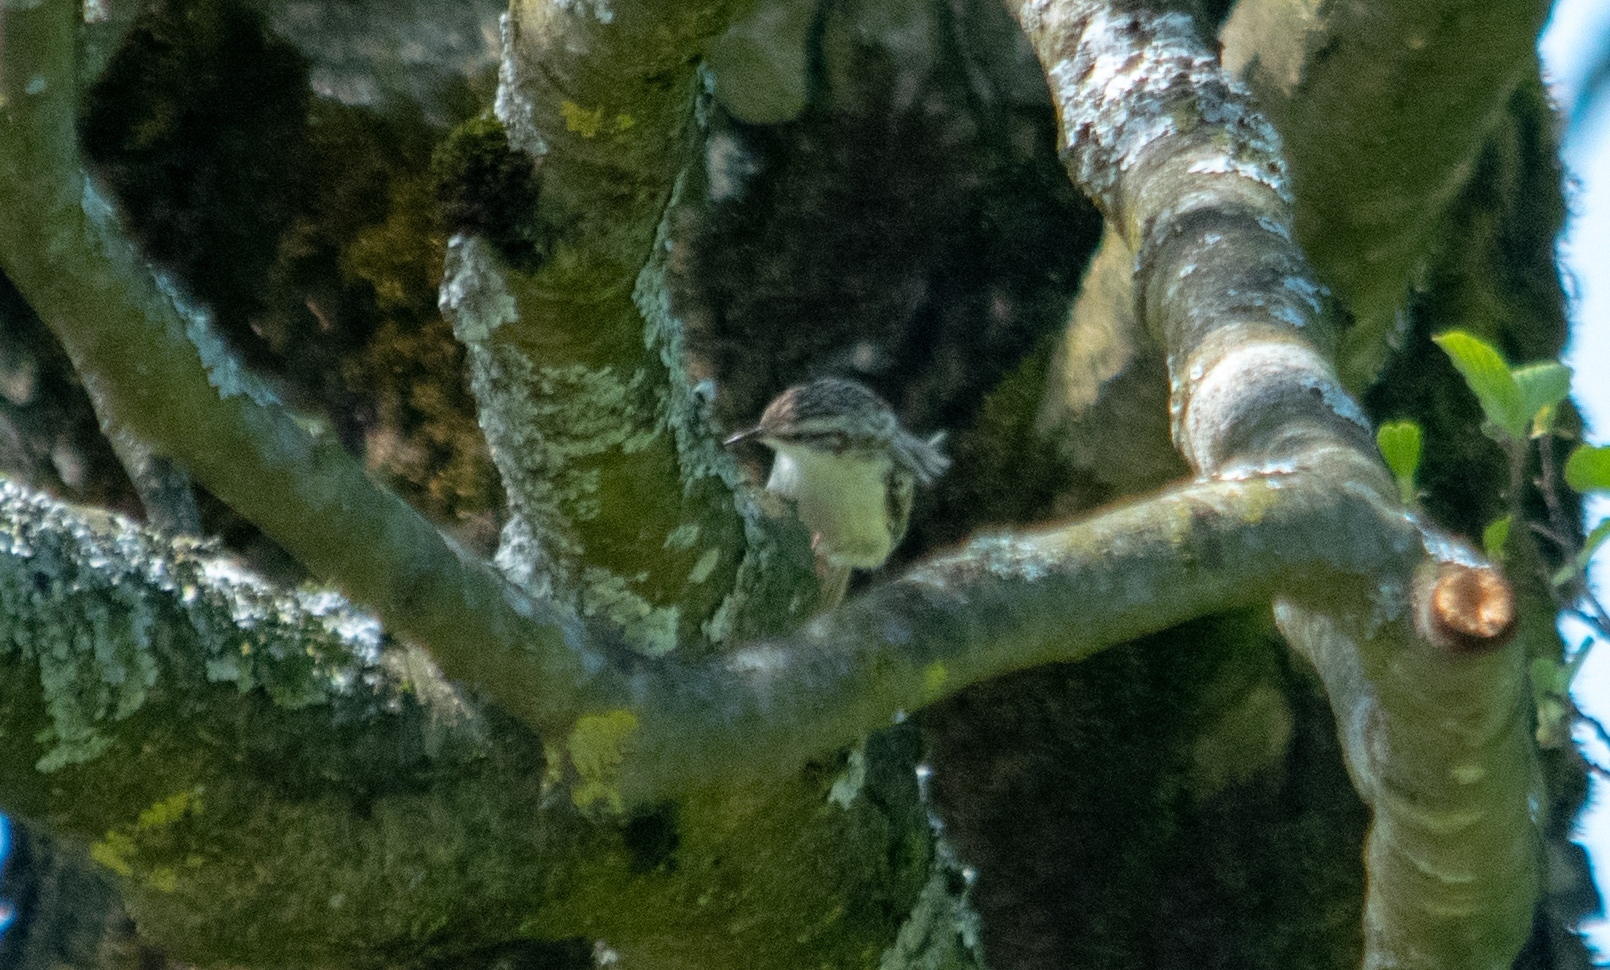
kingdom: Animalia
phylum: Chordata
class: Aves
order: Passeriformes
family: Certhiidae
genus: Certhia
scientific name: Certhia
